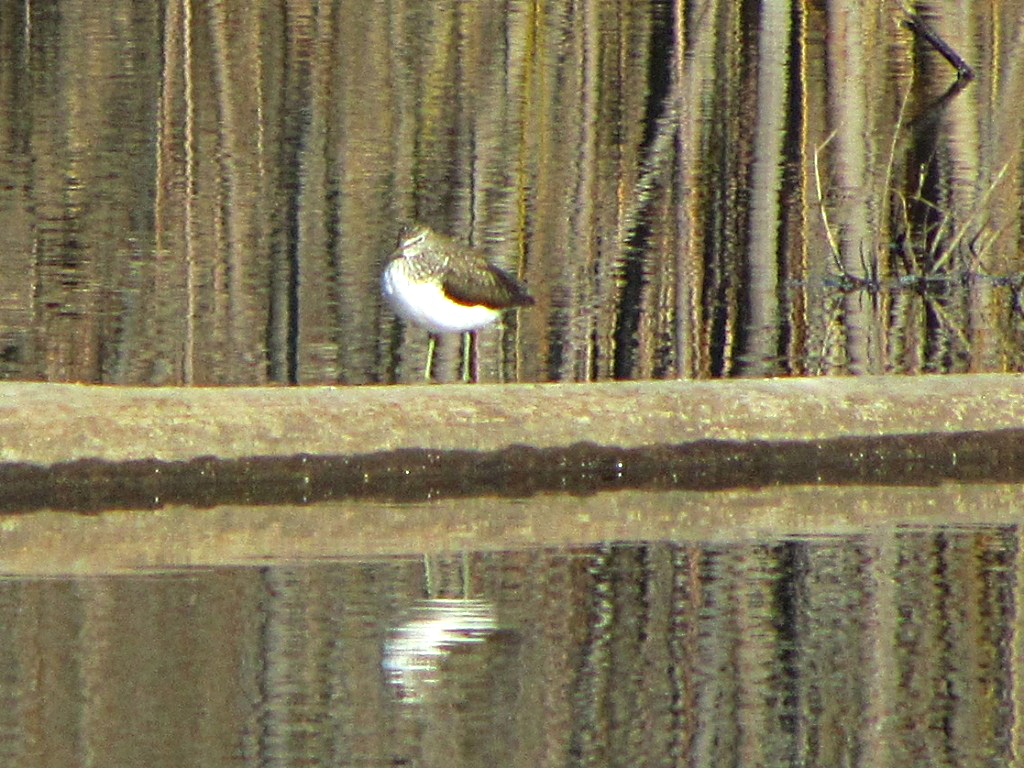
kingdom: Animalia
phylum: Chordata
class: Aves
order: Charadriiformes
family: Scolopacidae
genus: Tringa
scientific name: Tringa ochropus
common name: Green sandpiper
